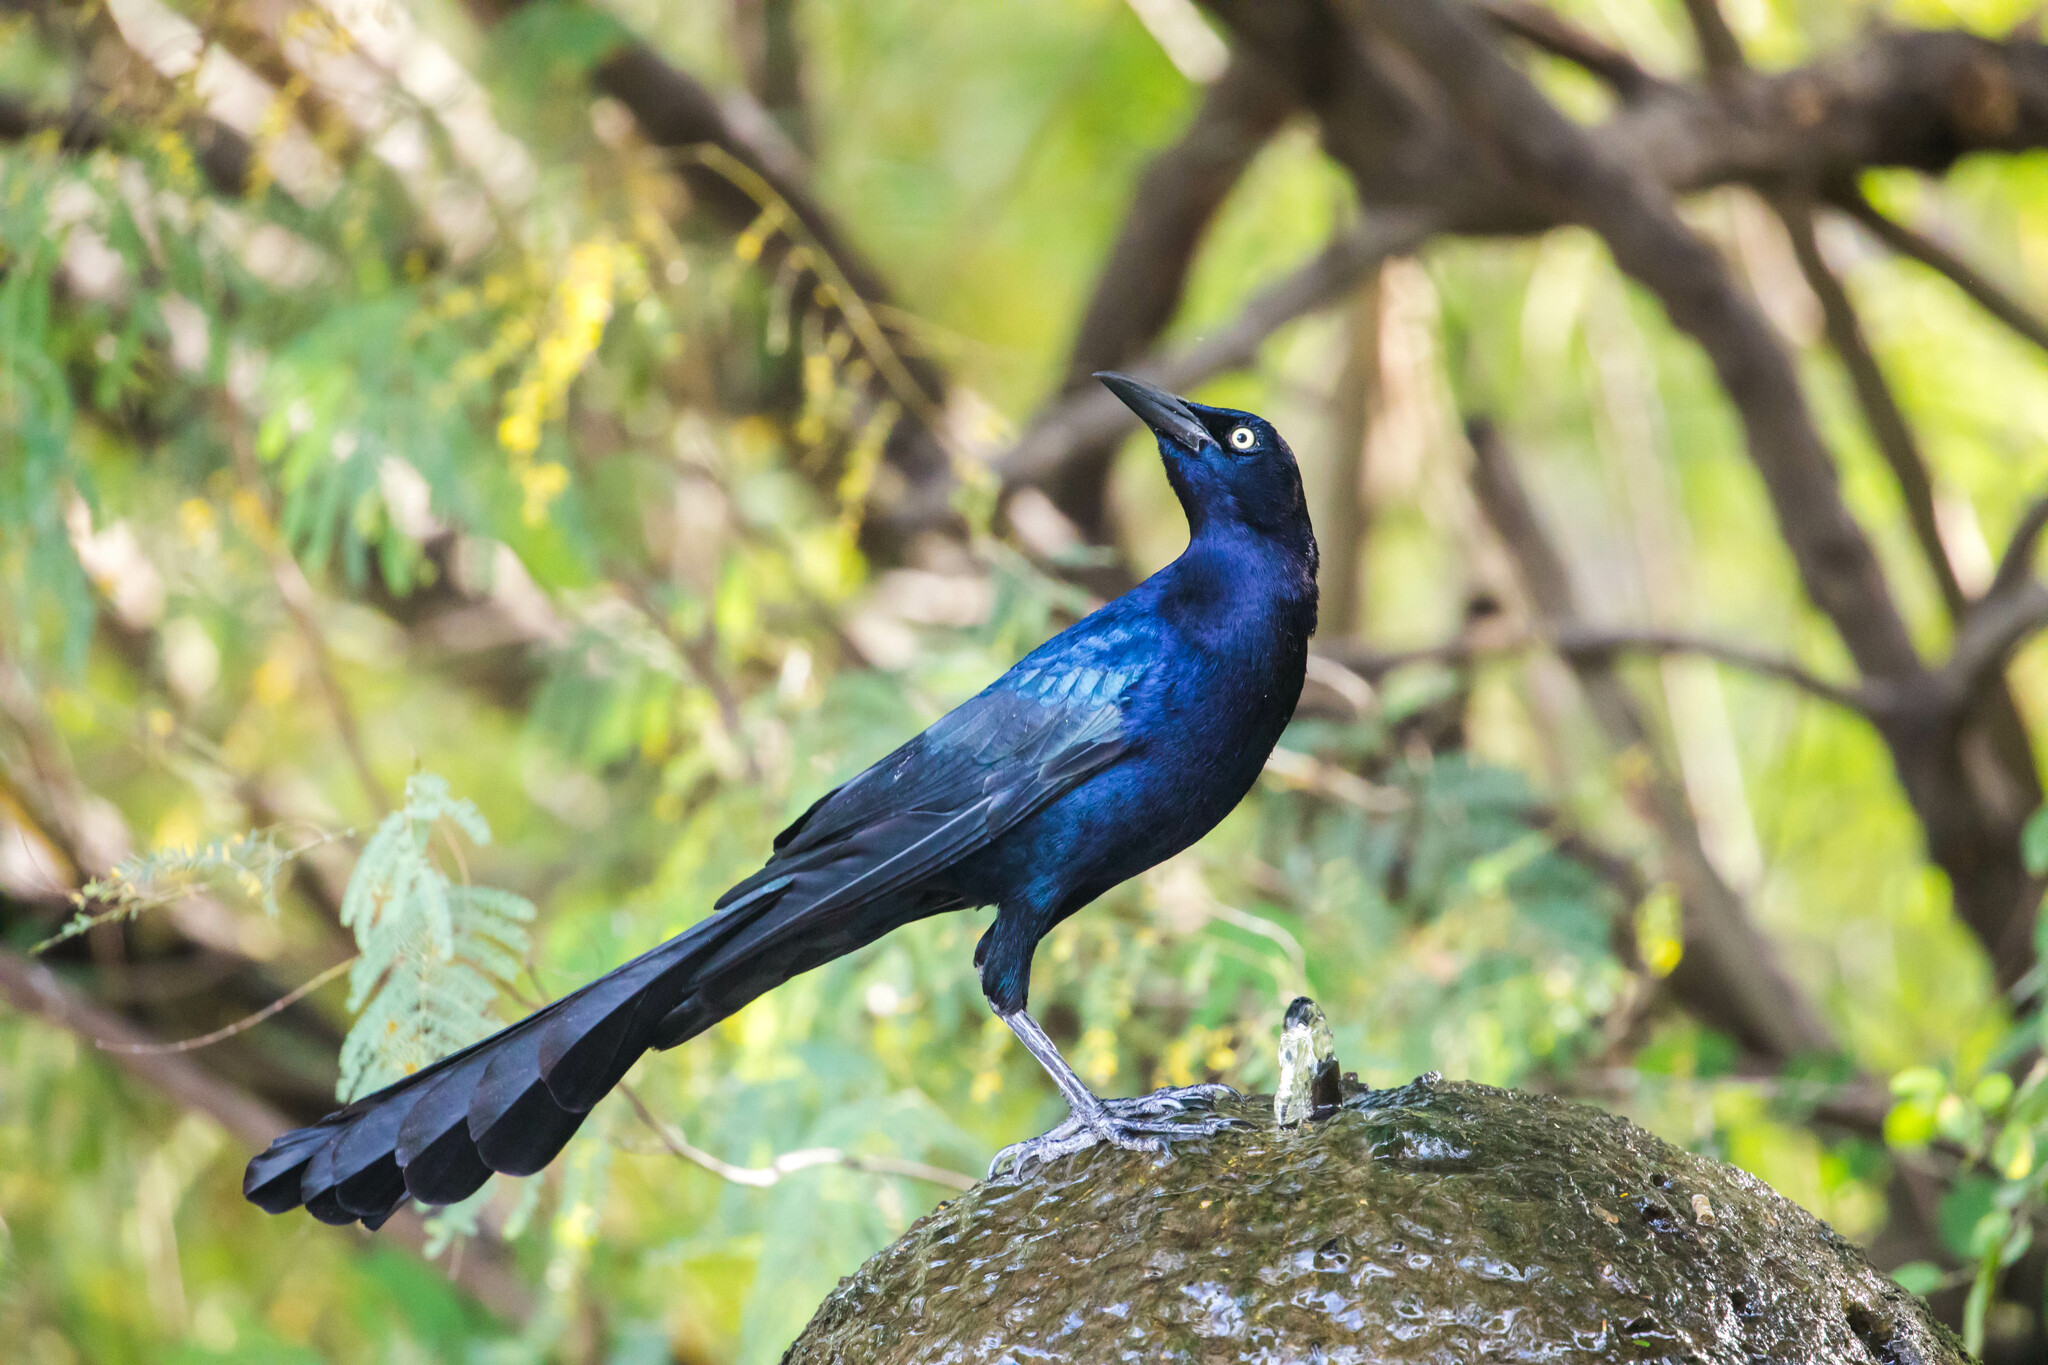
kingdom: Animalia
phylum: Chordata
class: Aves
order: Passeriformes
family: Icteridae
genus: Quiscalus
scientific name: Quiscalus mexicanus
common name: Great-tailed grackle
